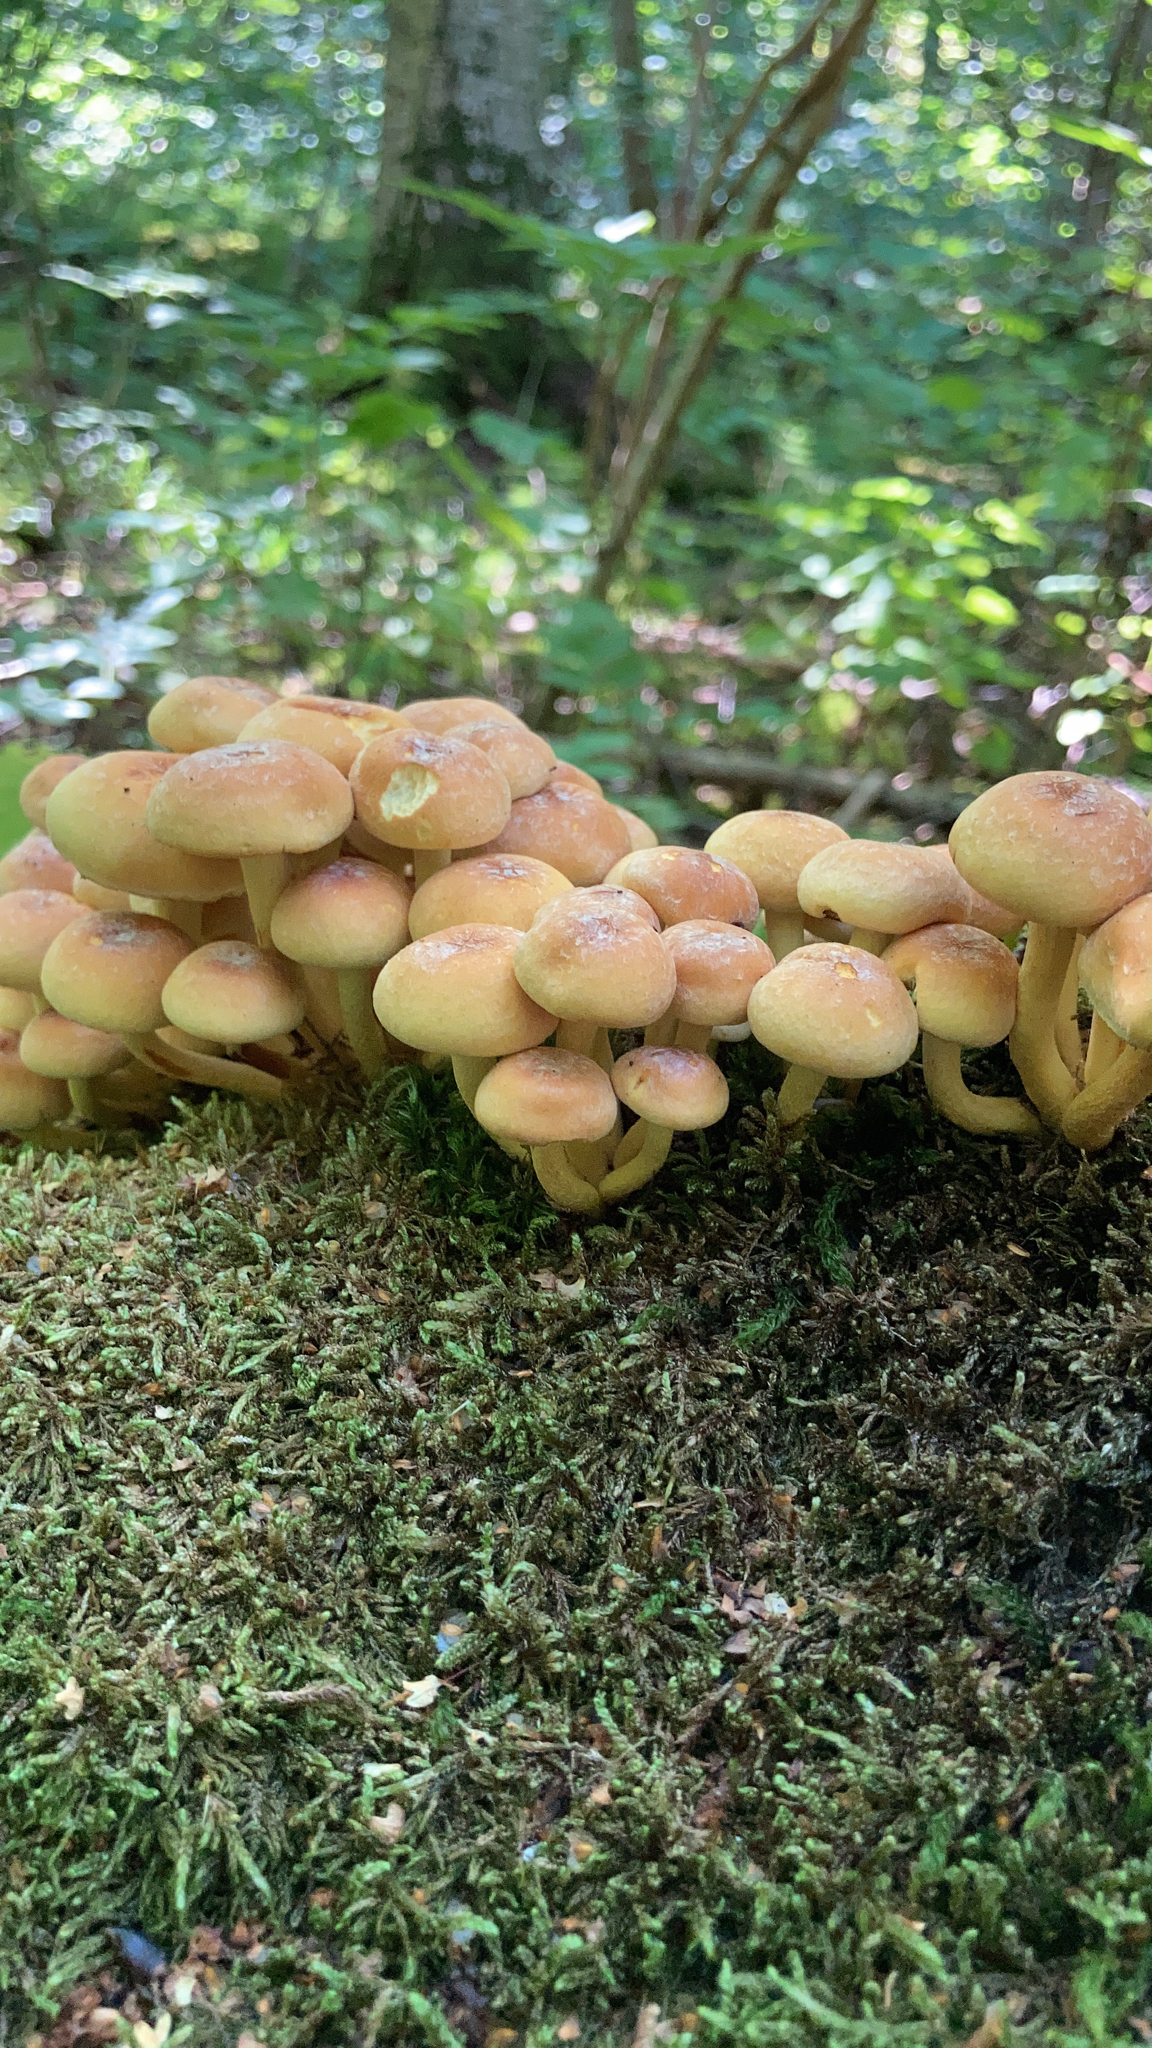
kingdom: Fungi
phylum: Basidiomycota
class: Agaricomycetes
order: Agaricales
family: Strophariaceae
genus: Hypholoma
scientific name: Hypholoma fasciculare
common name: Sulphur tuft
